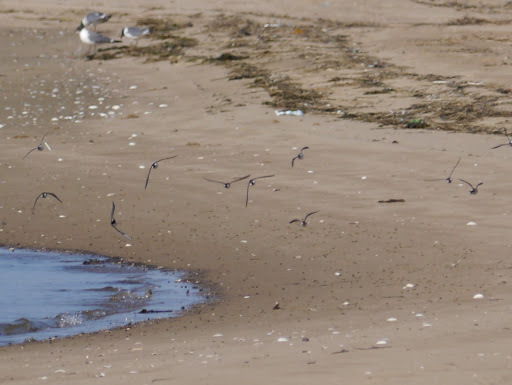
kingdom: Animalia
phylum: Chordata
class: Aves
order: Charadriiformes
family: Scolopacidae
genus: Calidris
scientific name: Calidris alba
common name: Sanderling
